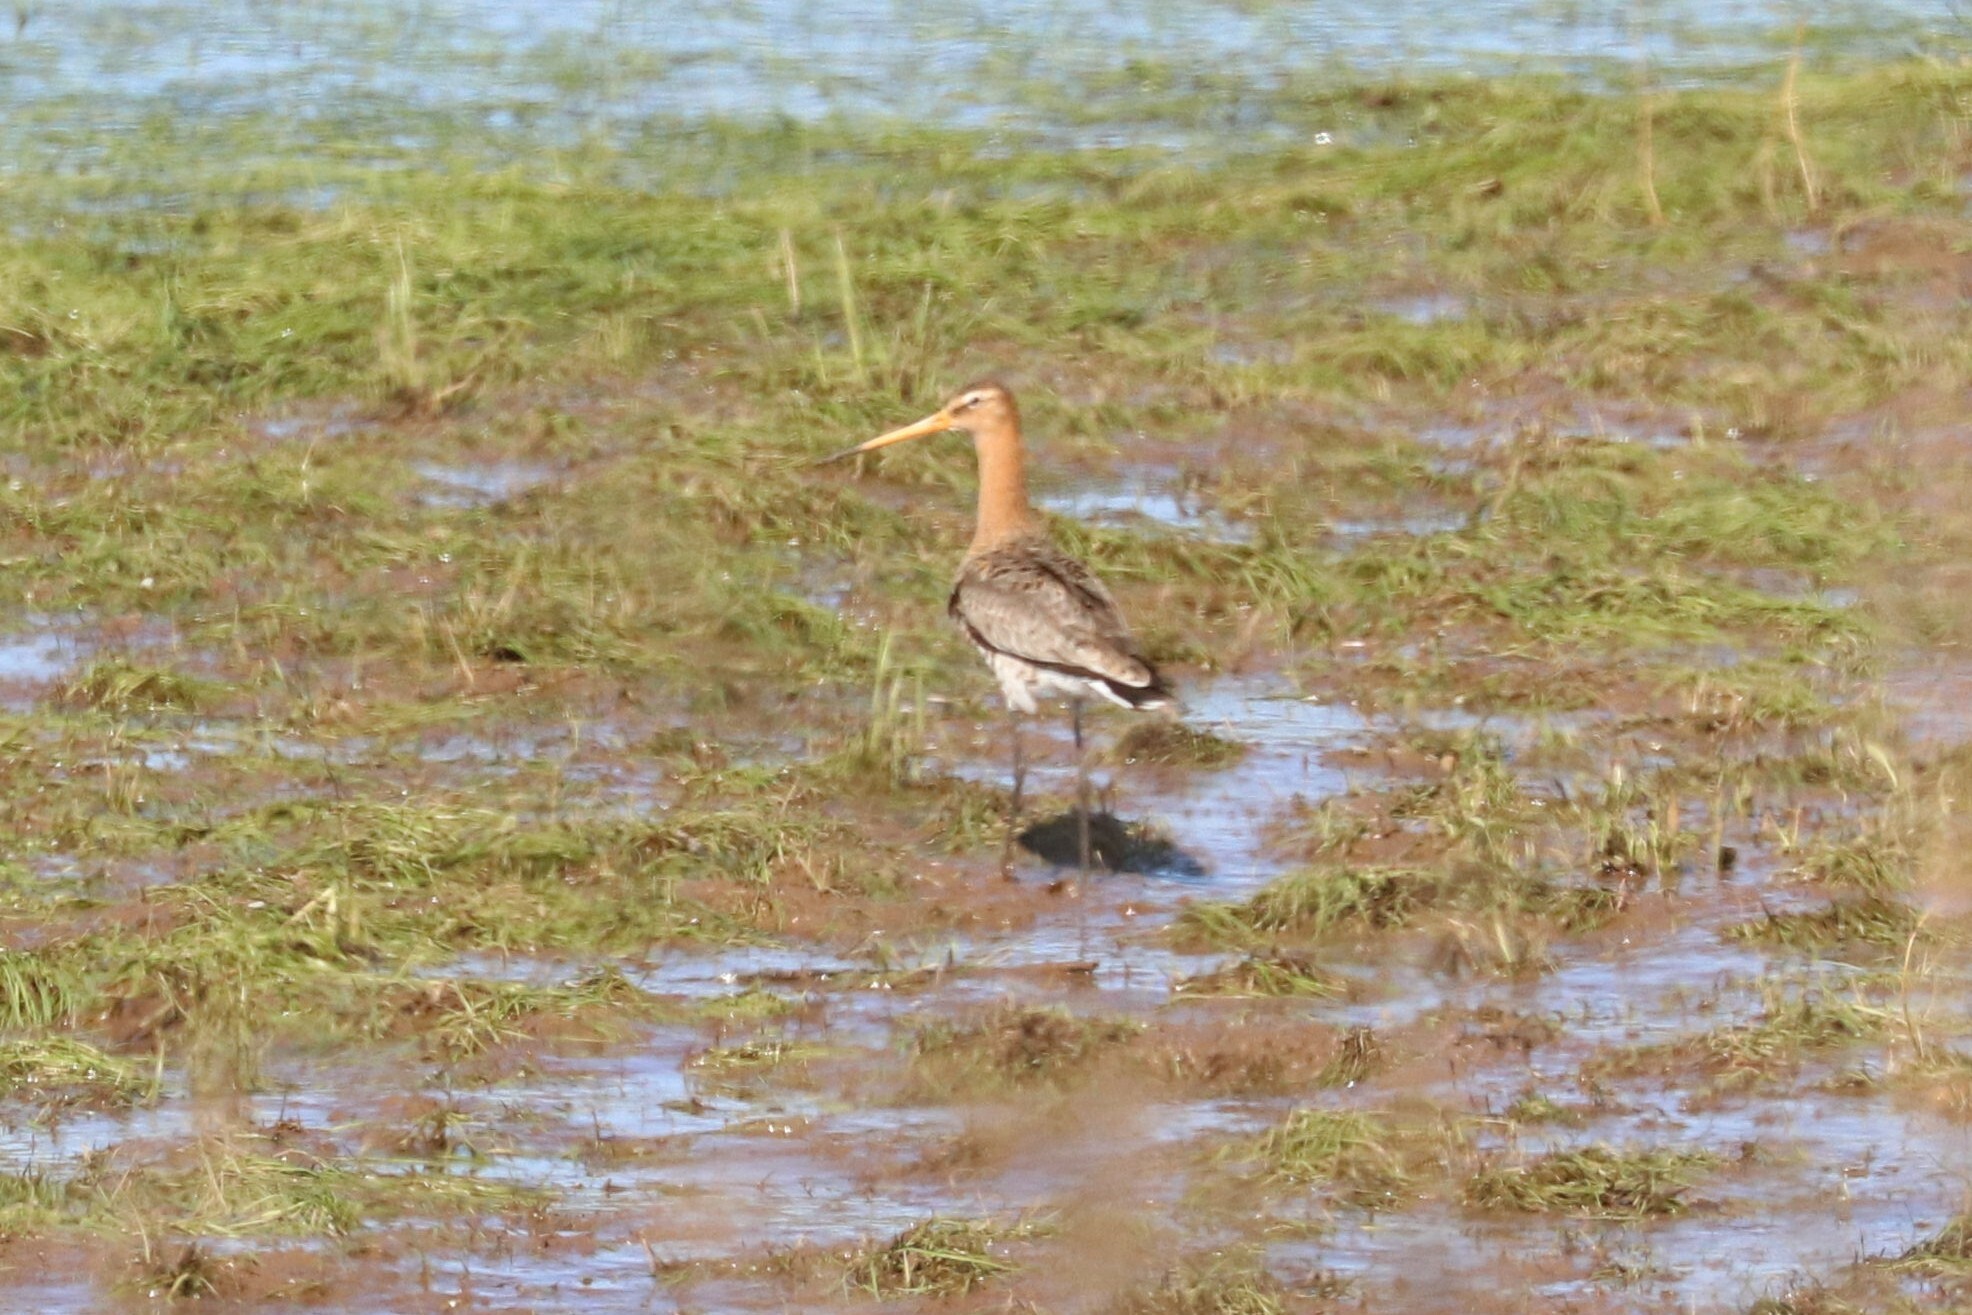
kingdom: Animalia
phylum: Chordata
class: Aves
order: Charadriiformes
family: Scolopacidae
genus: Limosa
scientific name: Limosa limosa
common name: Black-tailed godwit
